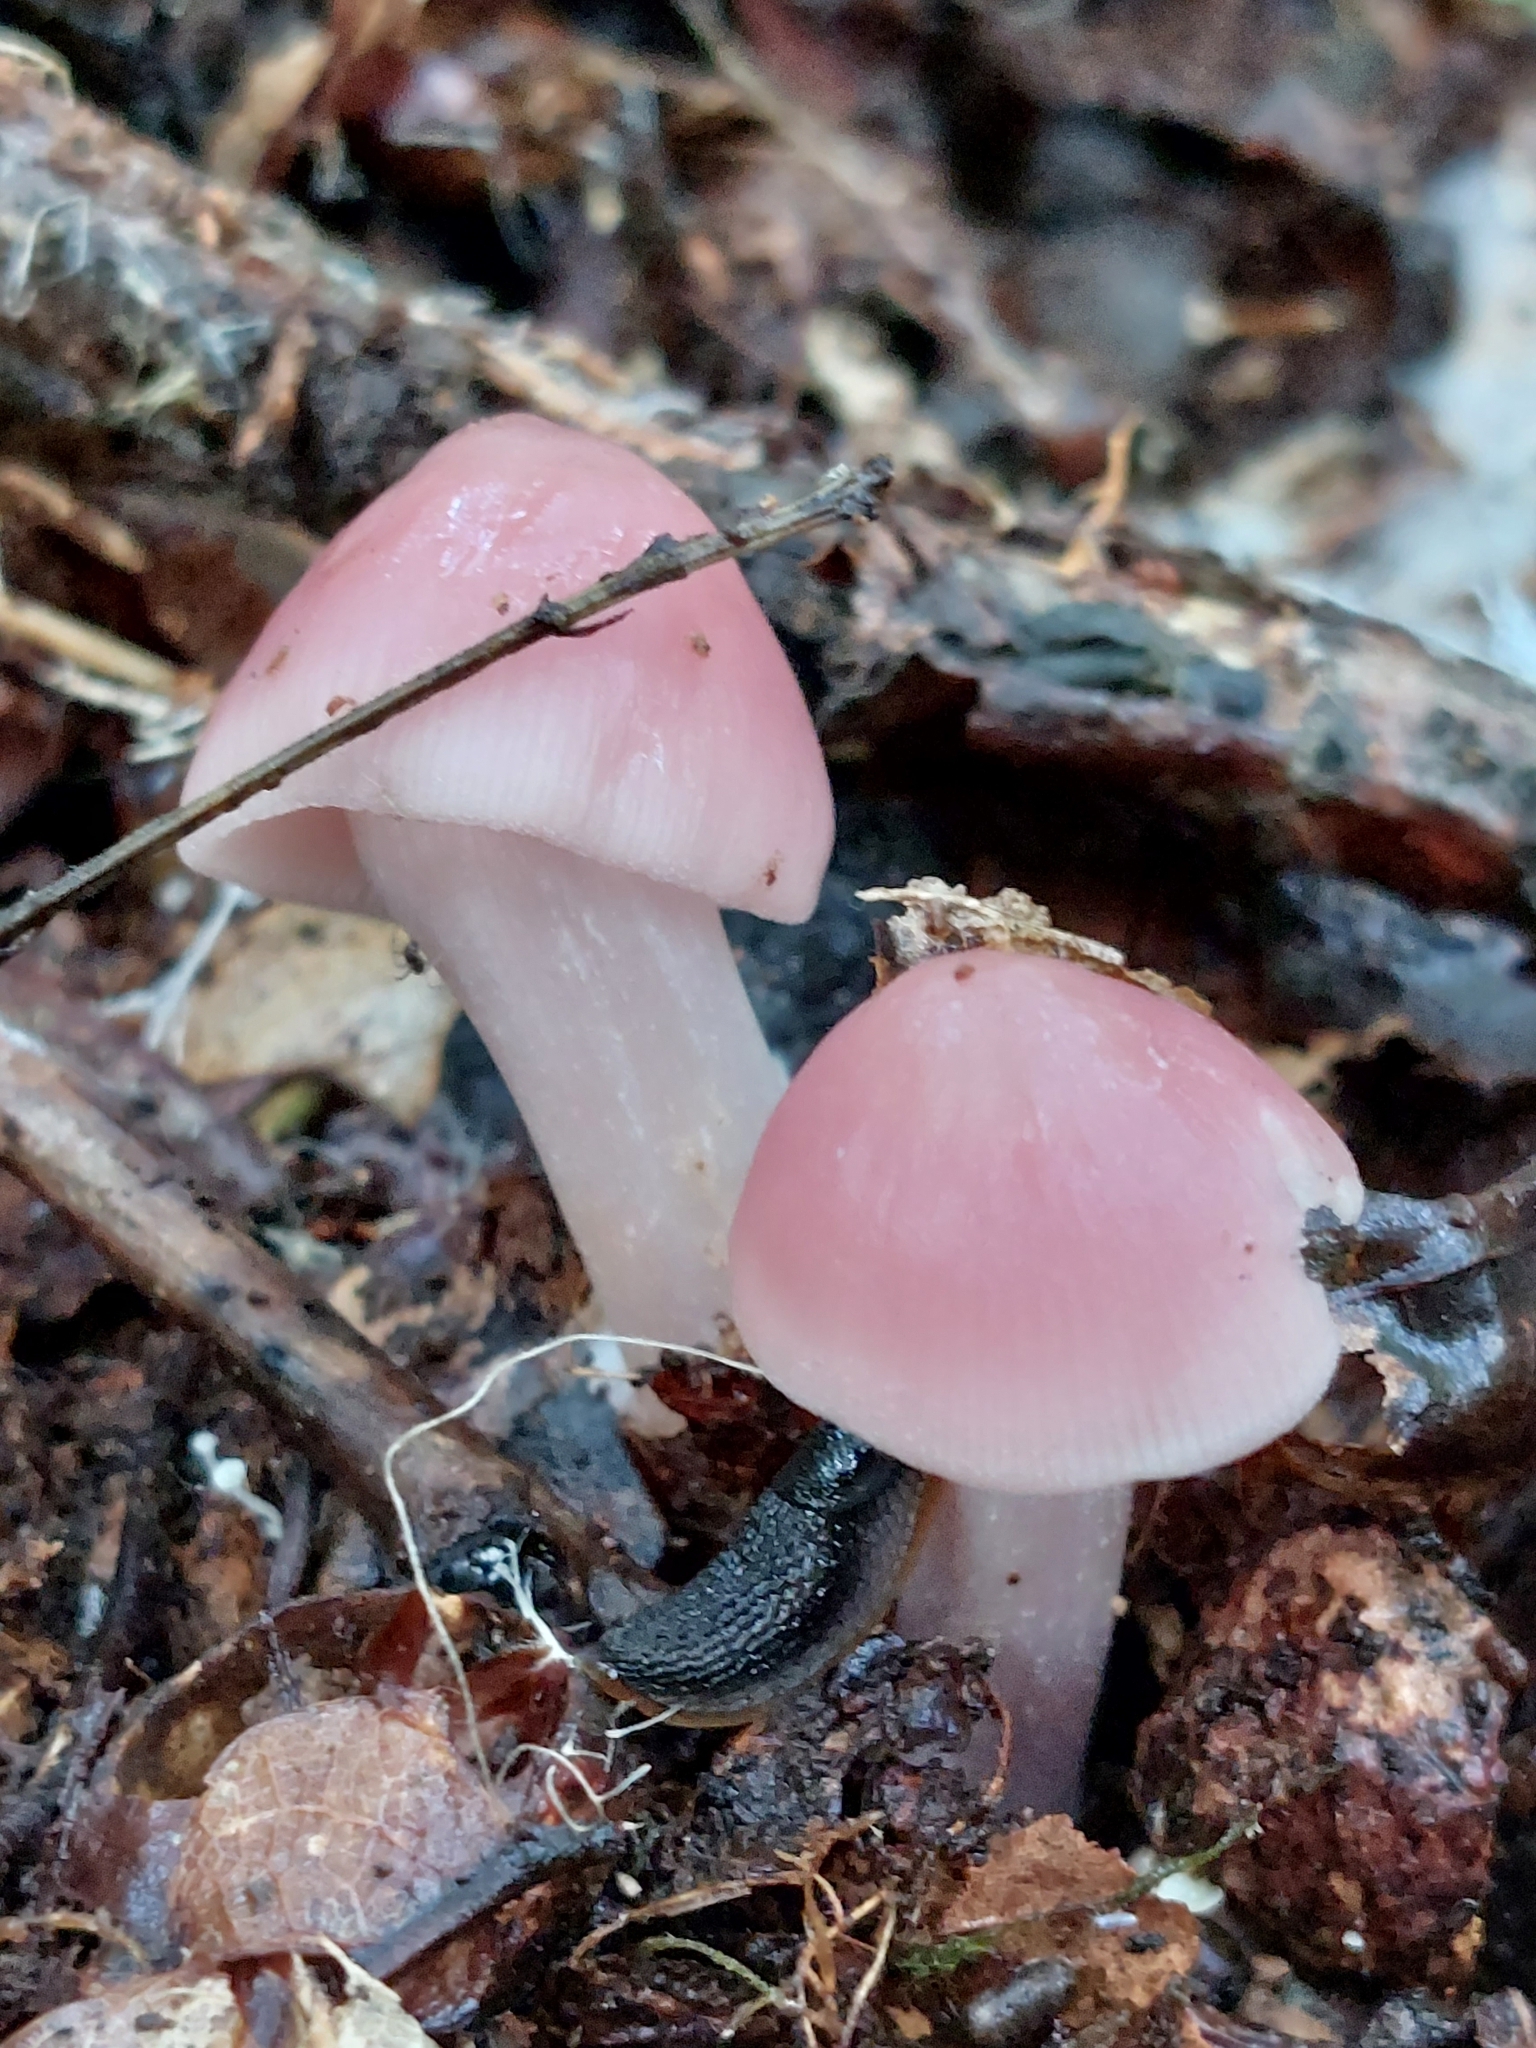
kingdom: Fungi
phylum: Basidiomycota
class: Agaricomycetes
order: Agaricales
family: Mycenaceae
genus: Mycena
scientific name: Mycena rosea
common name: Rosy bonnet
